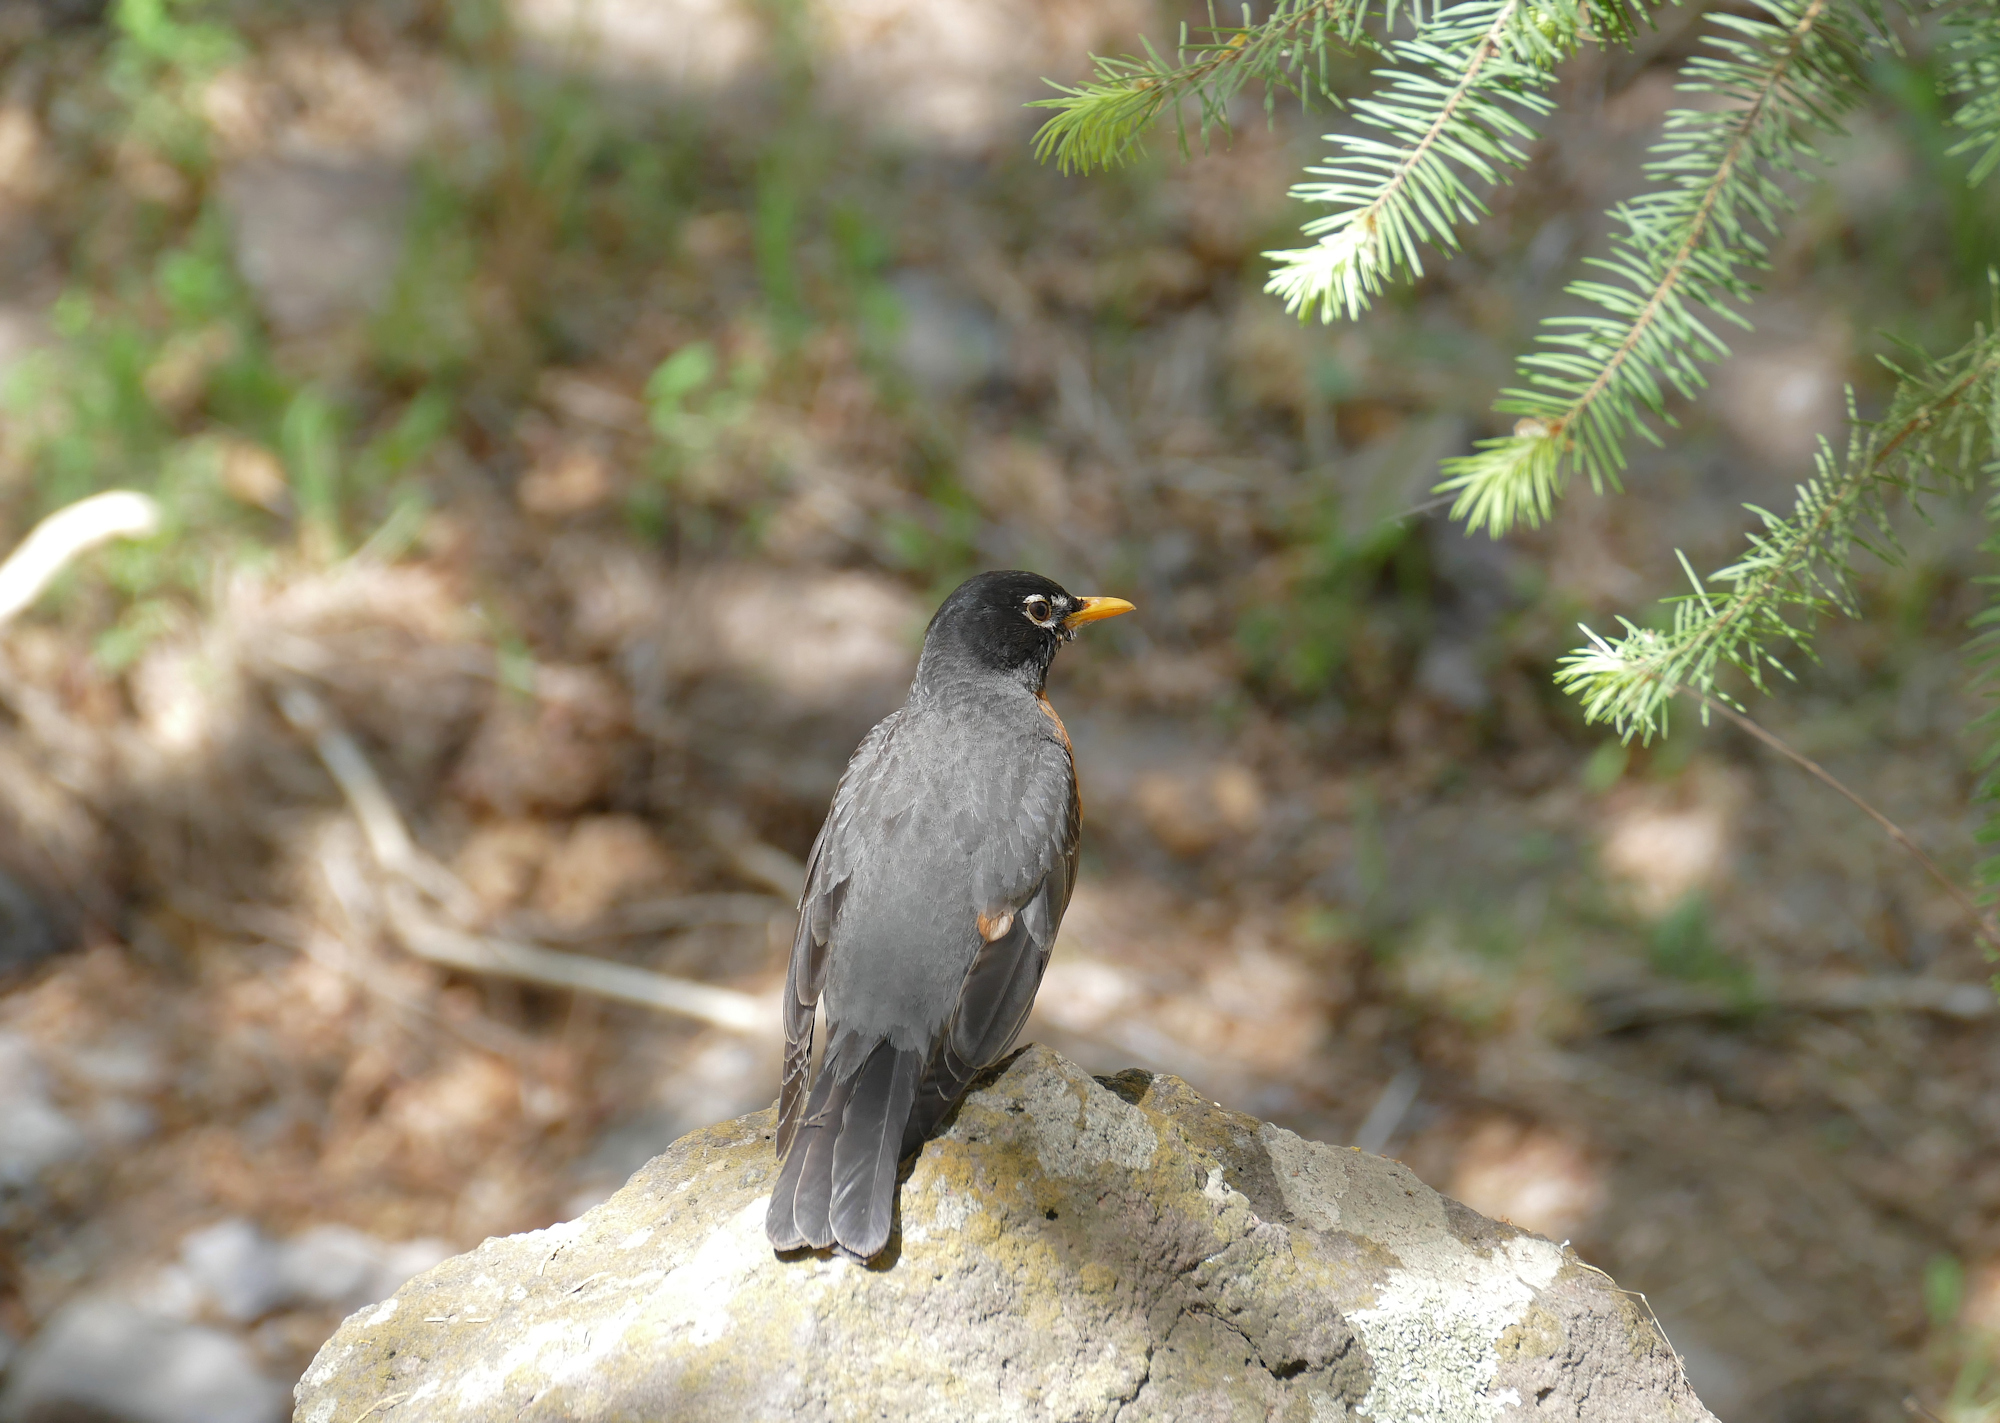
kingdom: Animalia
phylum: Chordata
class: Aves
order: Passeriformes
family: Turdidae
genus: Turdus
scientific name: Turdus migratorius
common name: American robin
